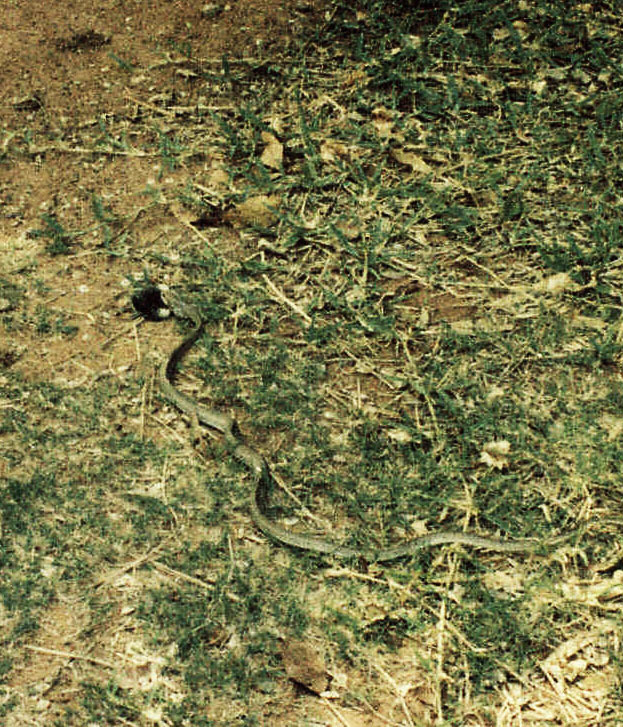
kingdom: Animalia
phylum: Chordata
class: Squamata
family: Psammophiidae
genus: Psammophis
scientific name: Psammophis mossambicus
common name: Olive grass snake
